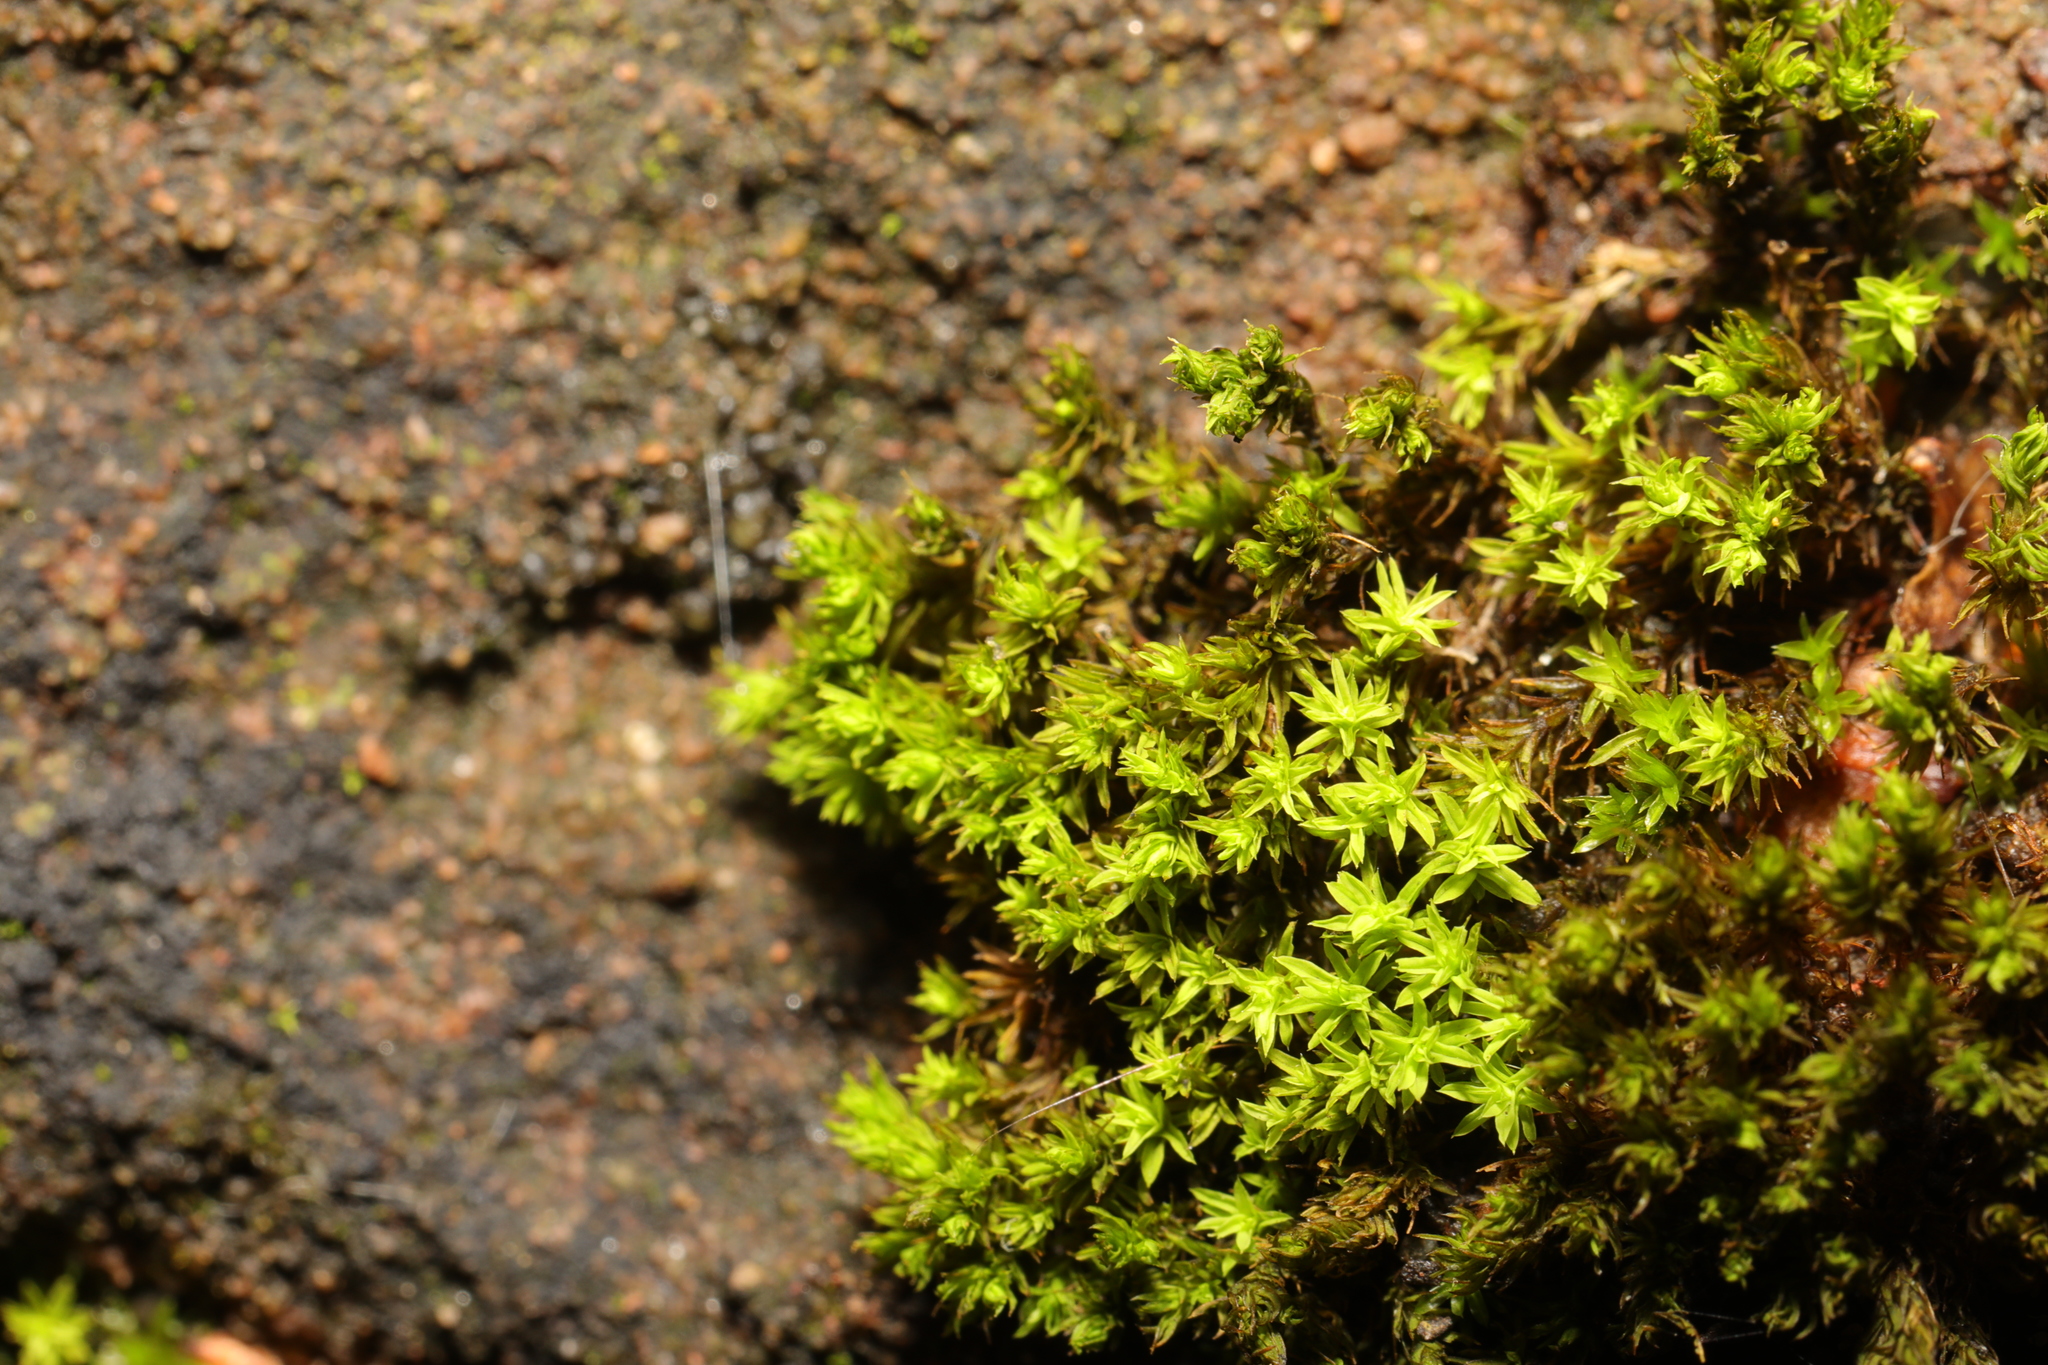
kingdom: Plantae
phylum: Bryophyta
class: Bryopsida
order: Pottiales
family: Pottiaceae
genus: Barbula
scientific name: Barbula unguiculata
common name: Prickly beard moss
